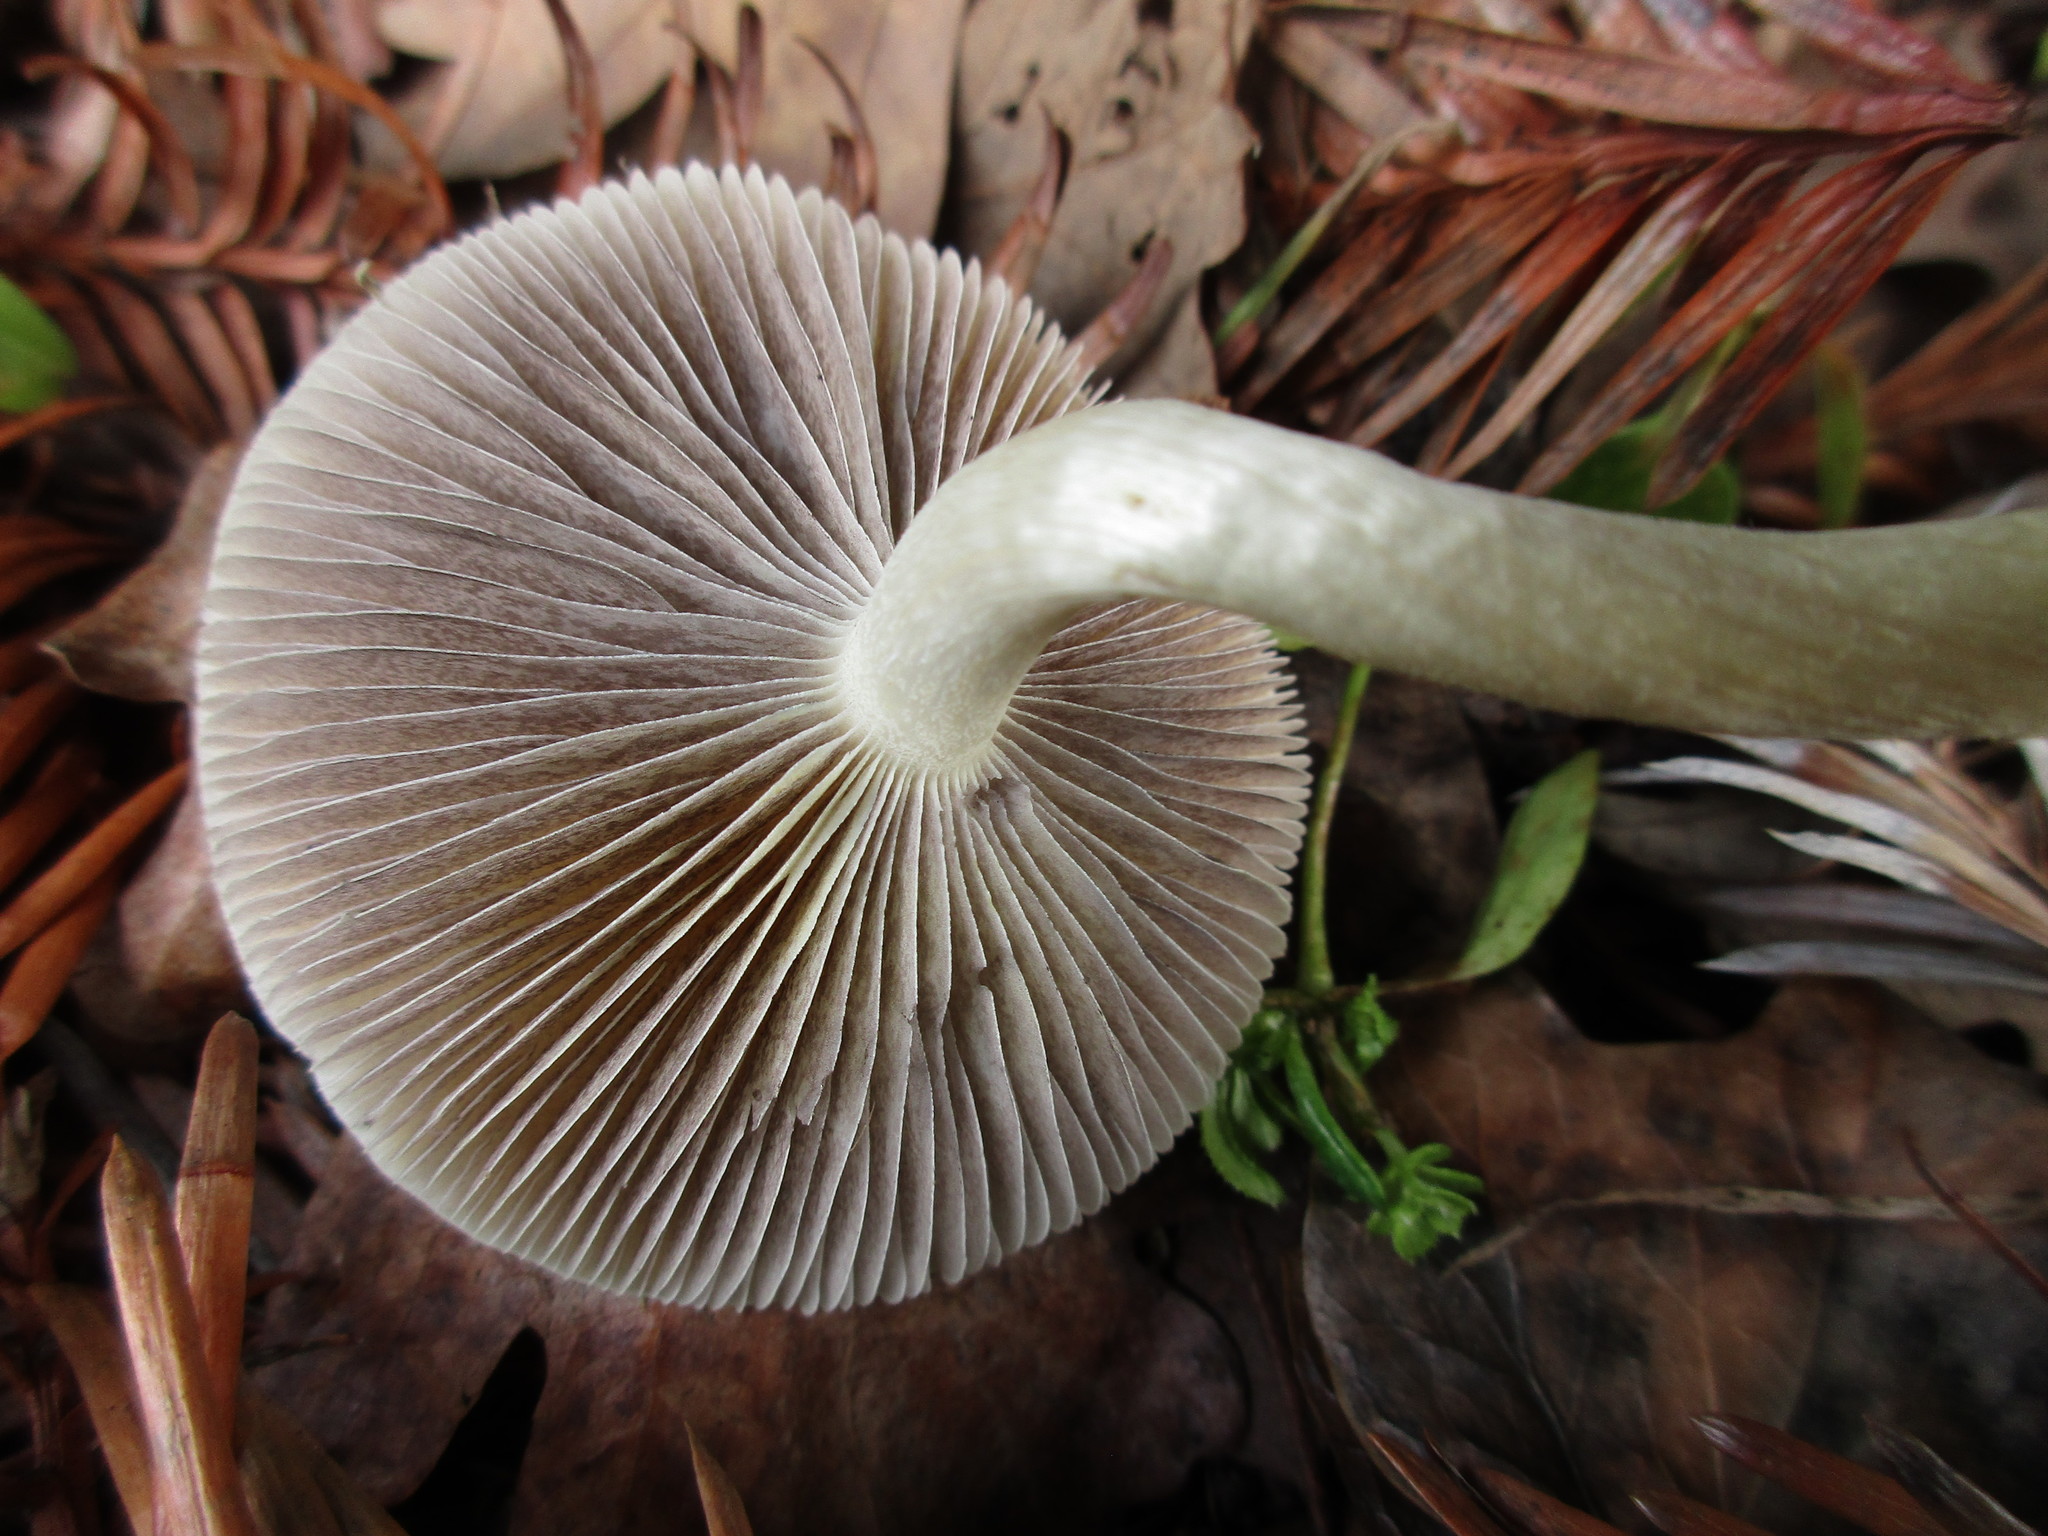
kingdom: Fungi
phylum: Basidiomycota
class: Agaricomycetes
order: Agaricales
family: Strophariaceae
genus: Leratiomyces
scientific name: Leratiomyces percevalii
